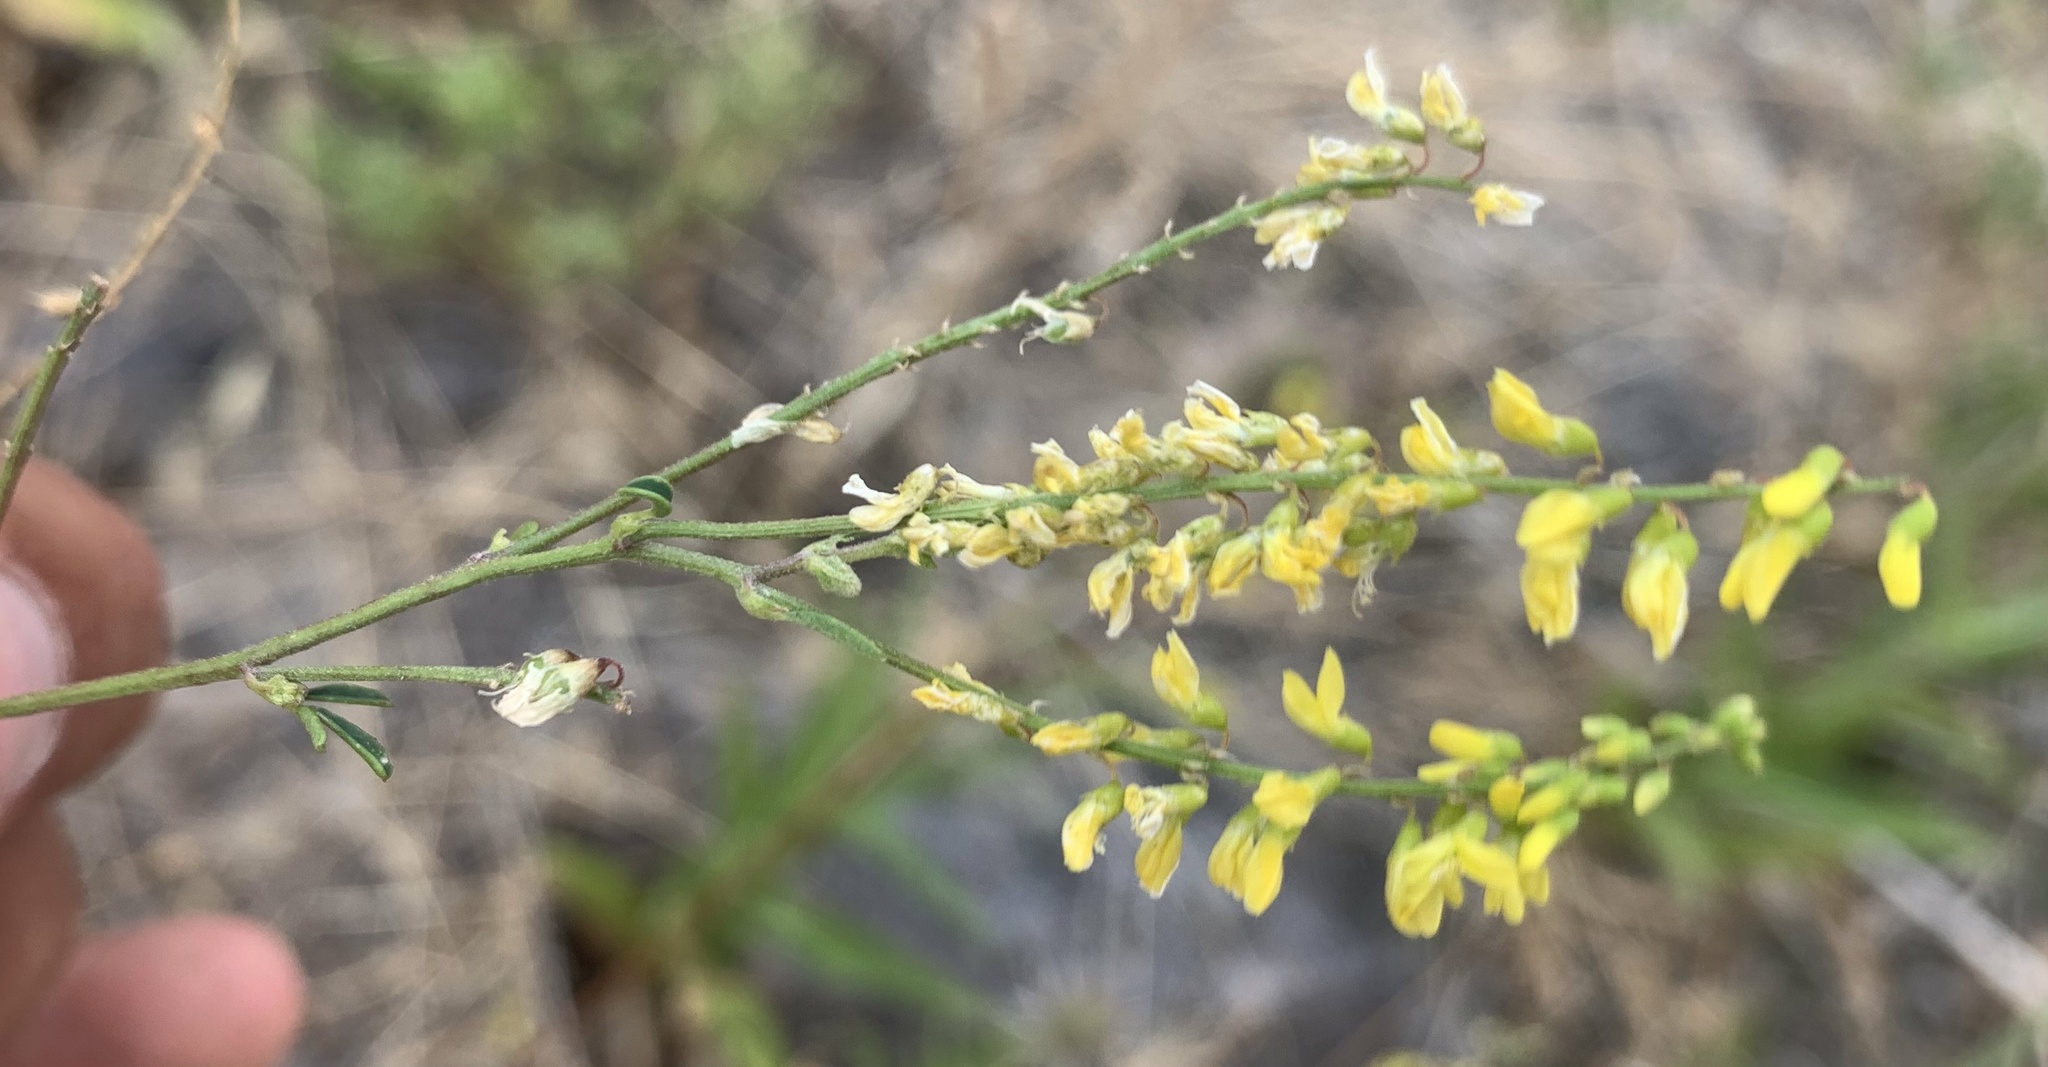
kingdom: Plantae
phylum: Tracheophyta
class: Magnoliopsida
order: Fabales
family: Fabaceae
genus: Melilotus
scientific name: Melilotus officinalis
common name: Sweetclover
